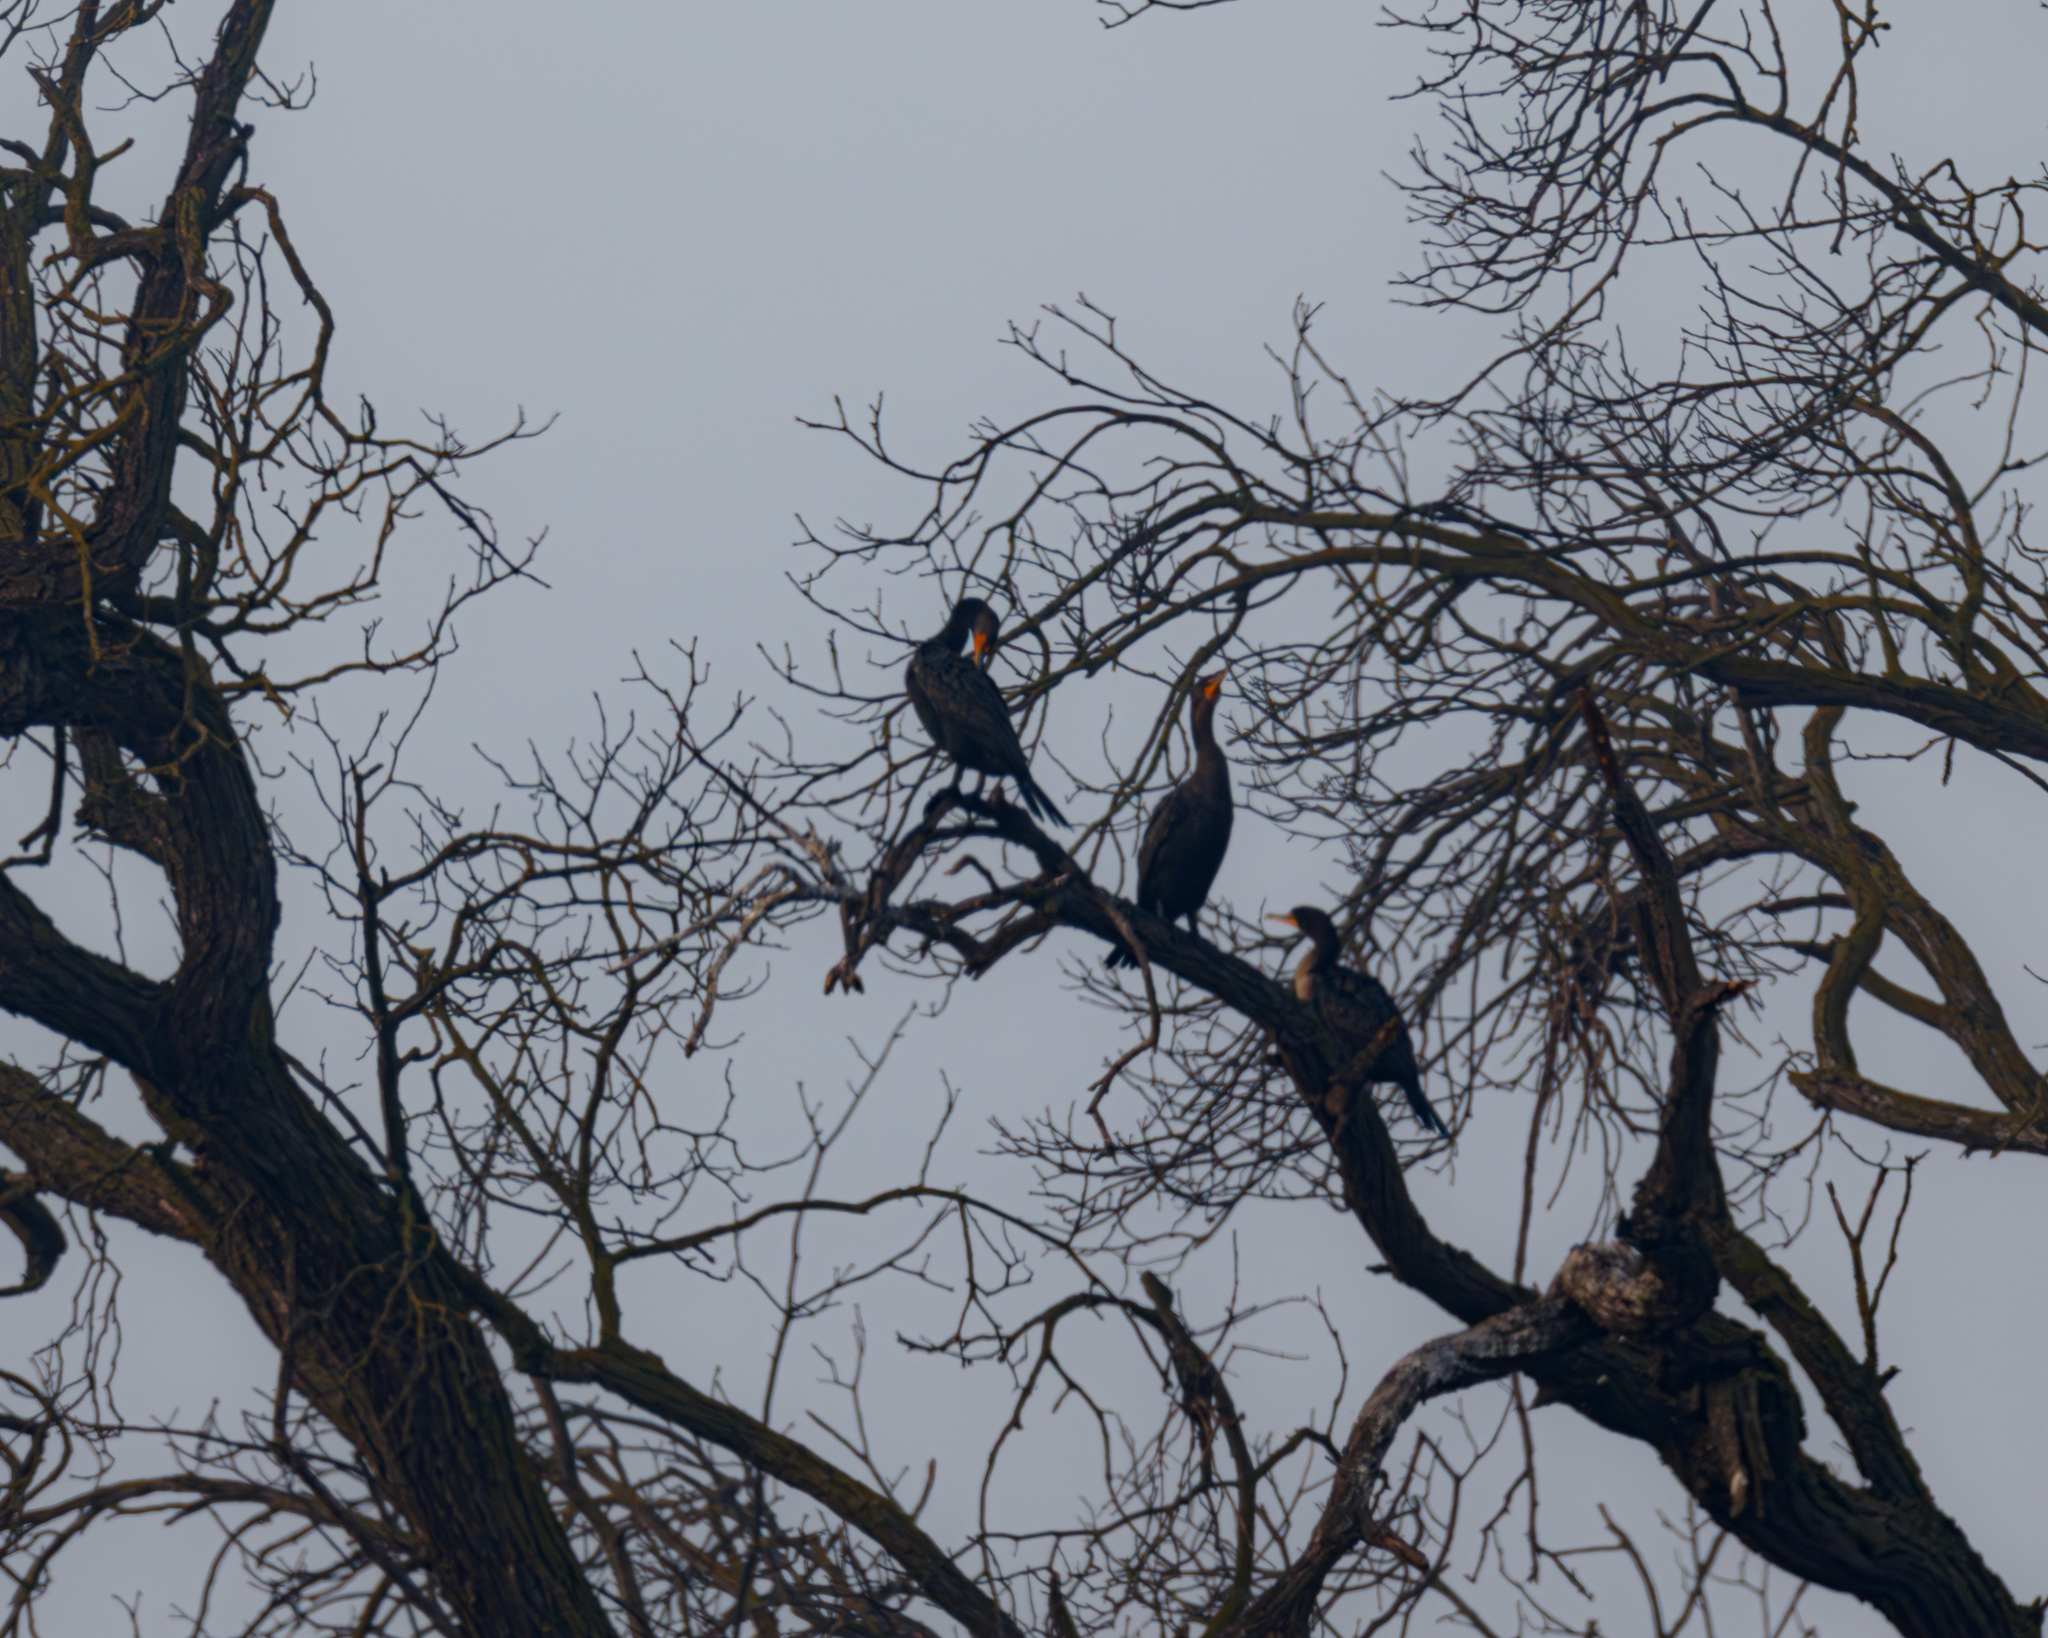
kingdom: Animalia
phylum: Chordata
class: Aves
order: Suliformes
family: Phalacrocoracidae
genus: Phalacrocorax
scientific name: Phalacrocorax auritus
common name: Double-crested cormorant
